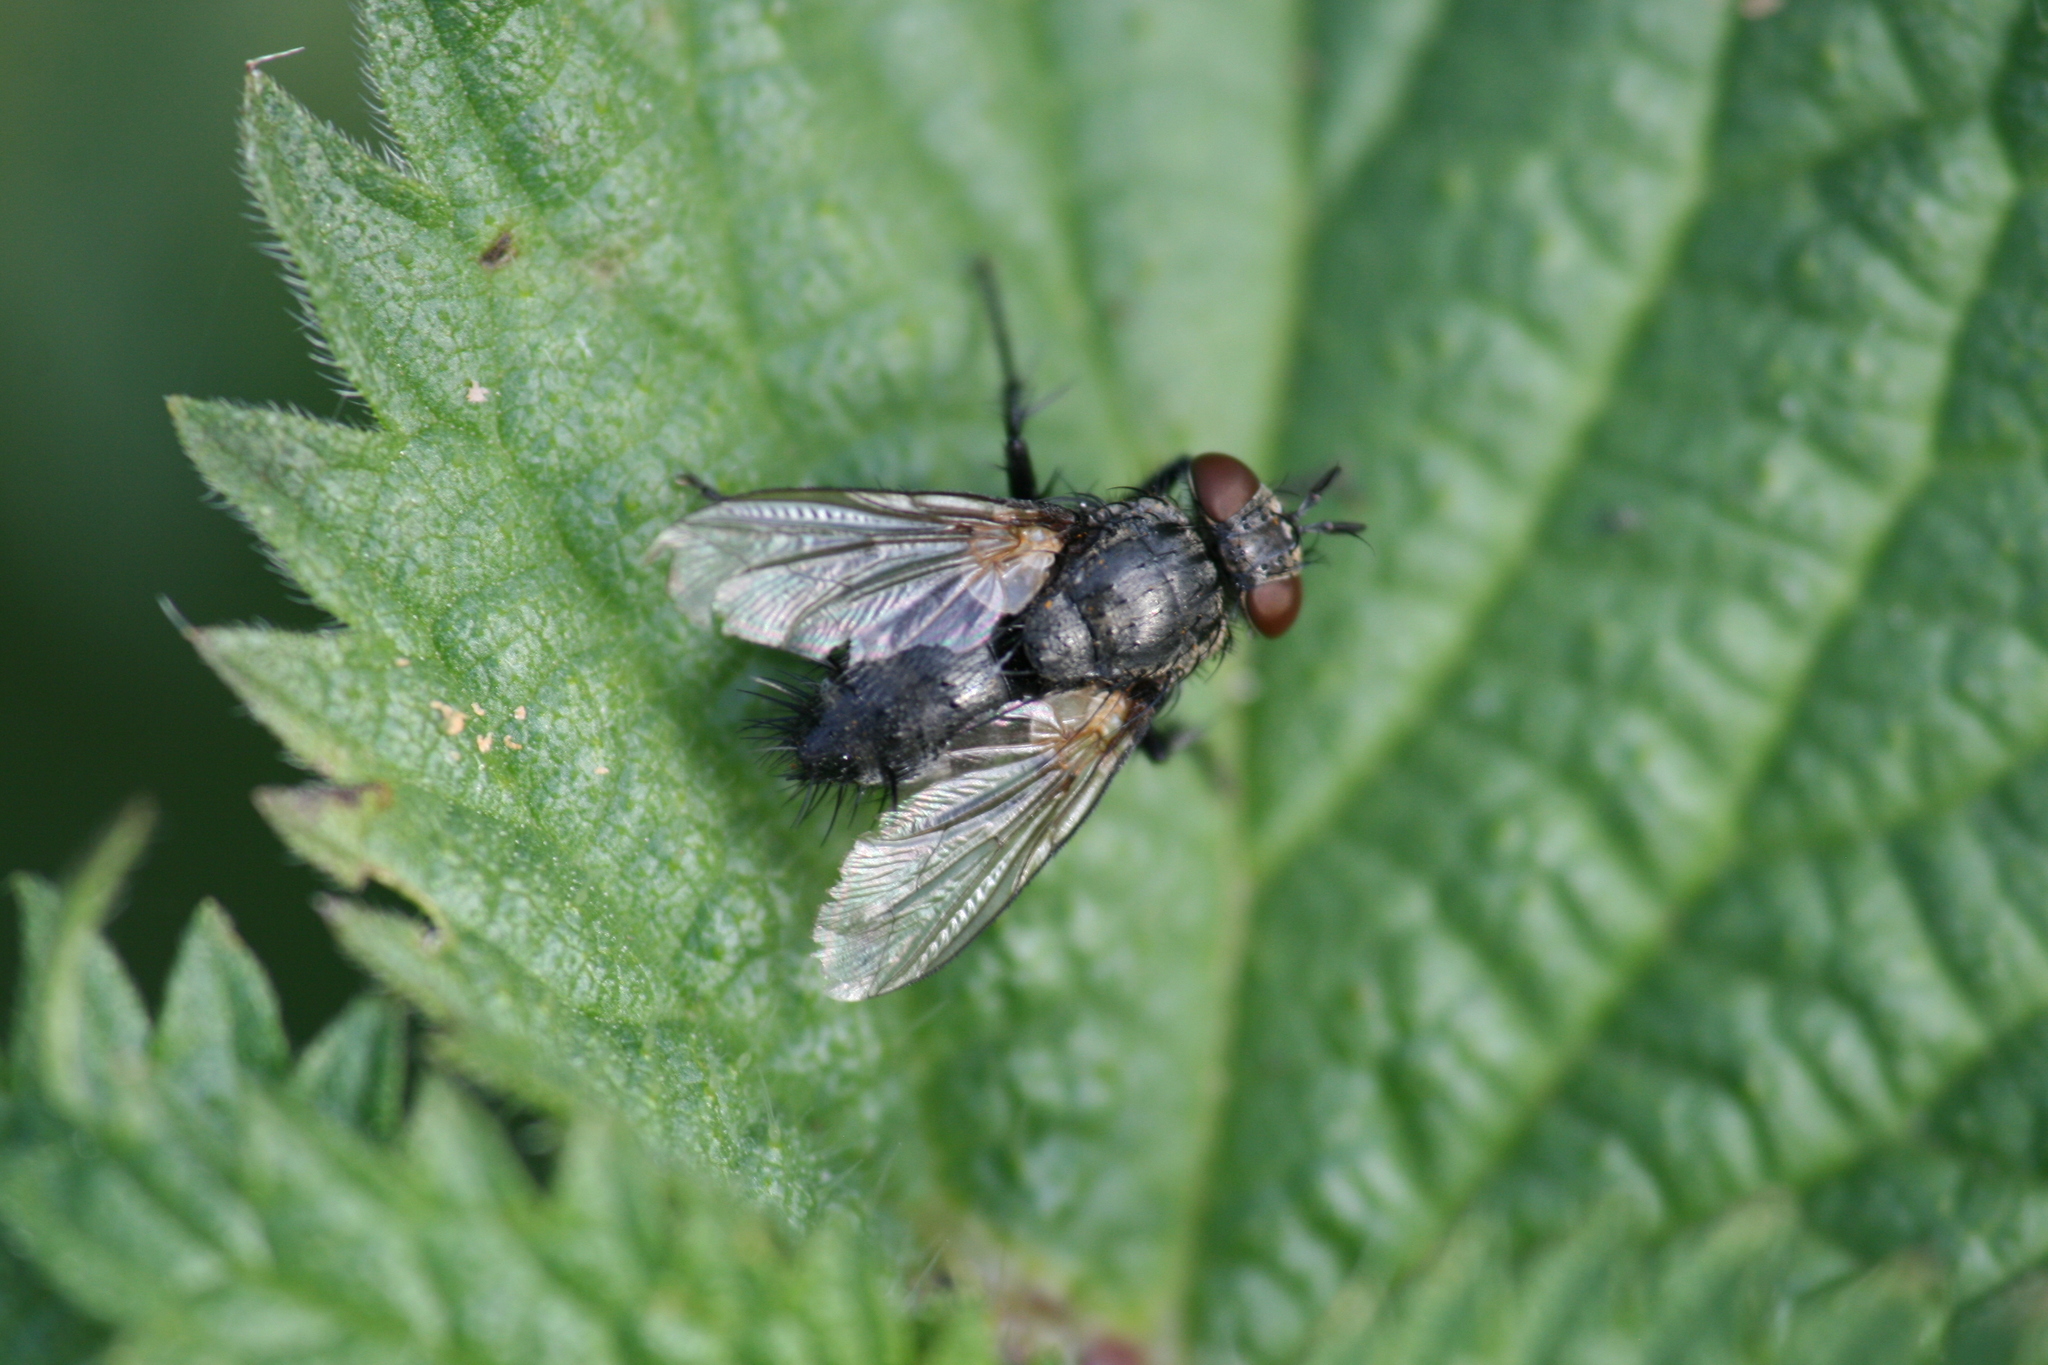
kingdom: Animalia
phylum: Arthropoda
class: Insecta
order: Diptera
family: Tachinidae
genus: Voria
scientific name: Voria ruralis
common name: Parasitic fly
